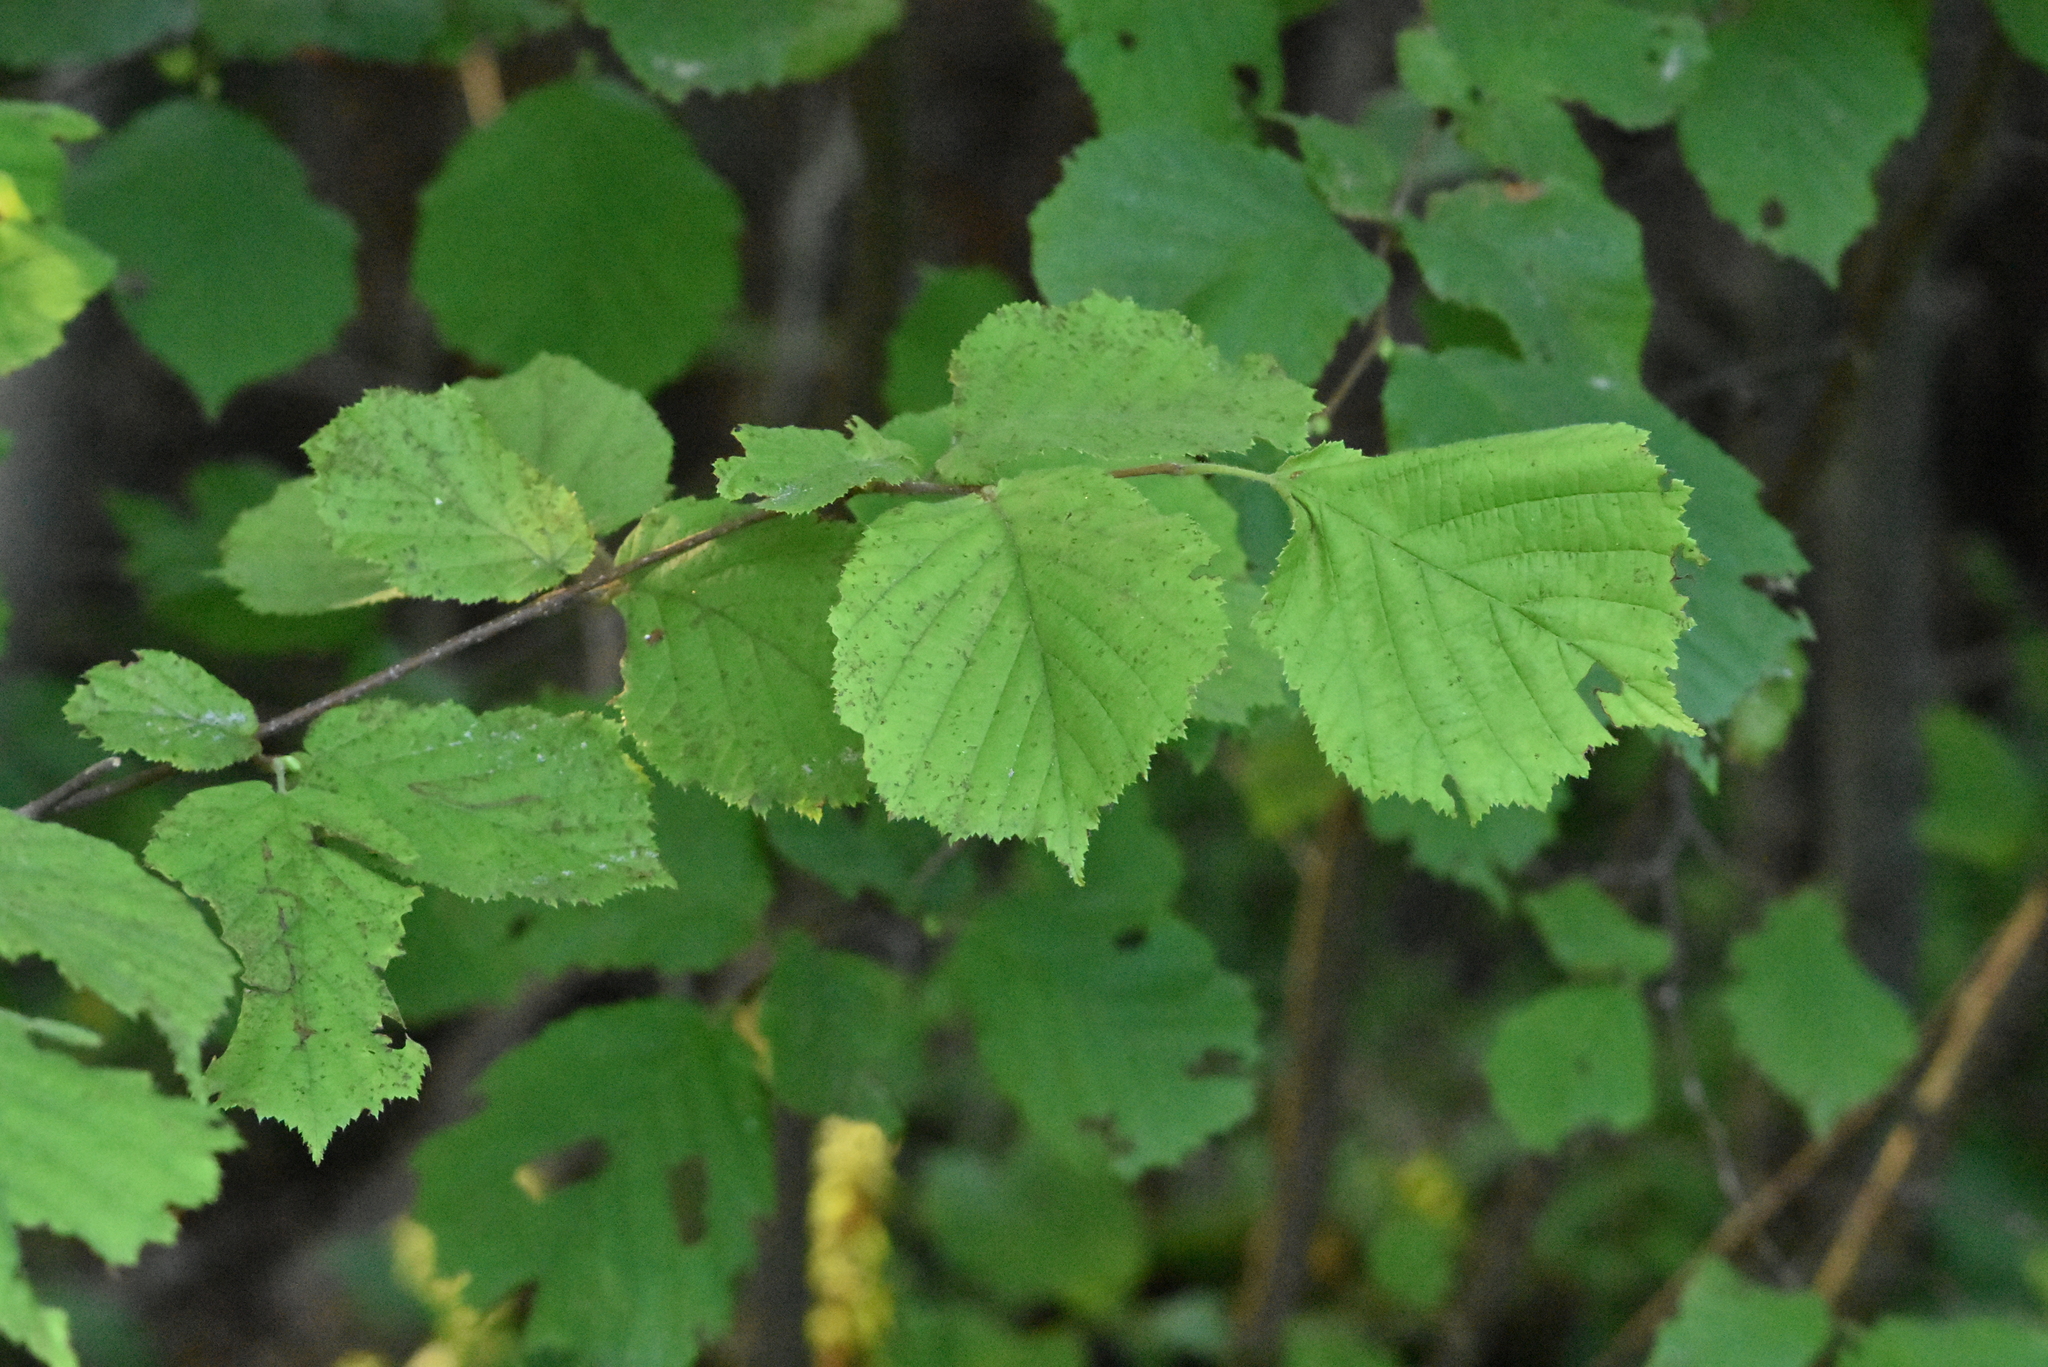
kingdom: Plantae
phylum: Tracheophyta
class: Magnoliopsida
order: Fagales
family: Betulaceae
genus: Corylus
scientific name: Corylus avellana
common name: European hazel
